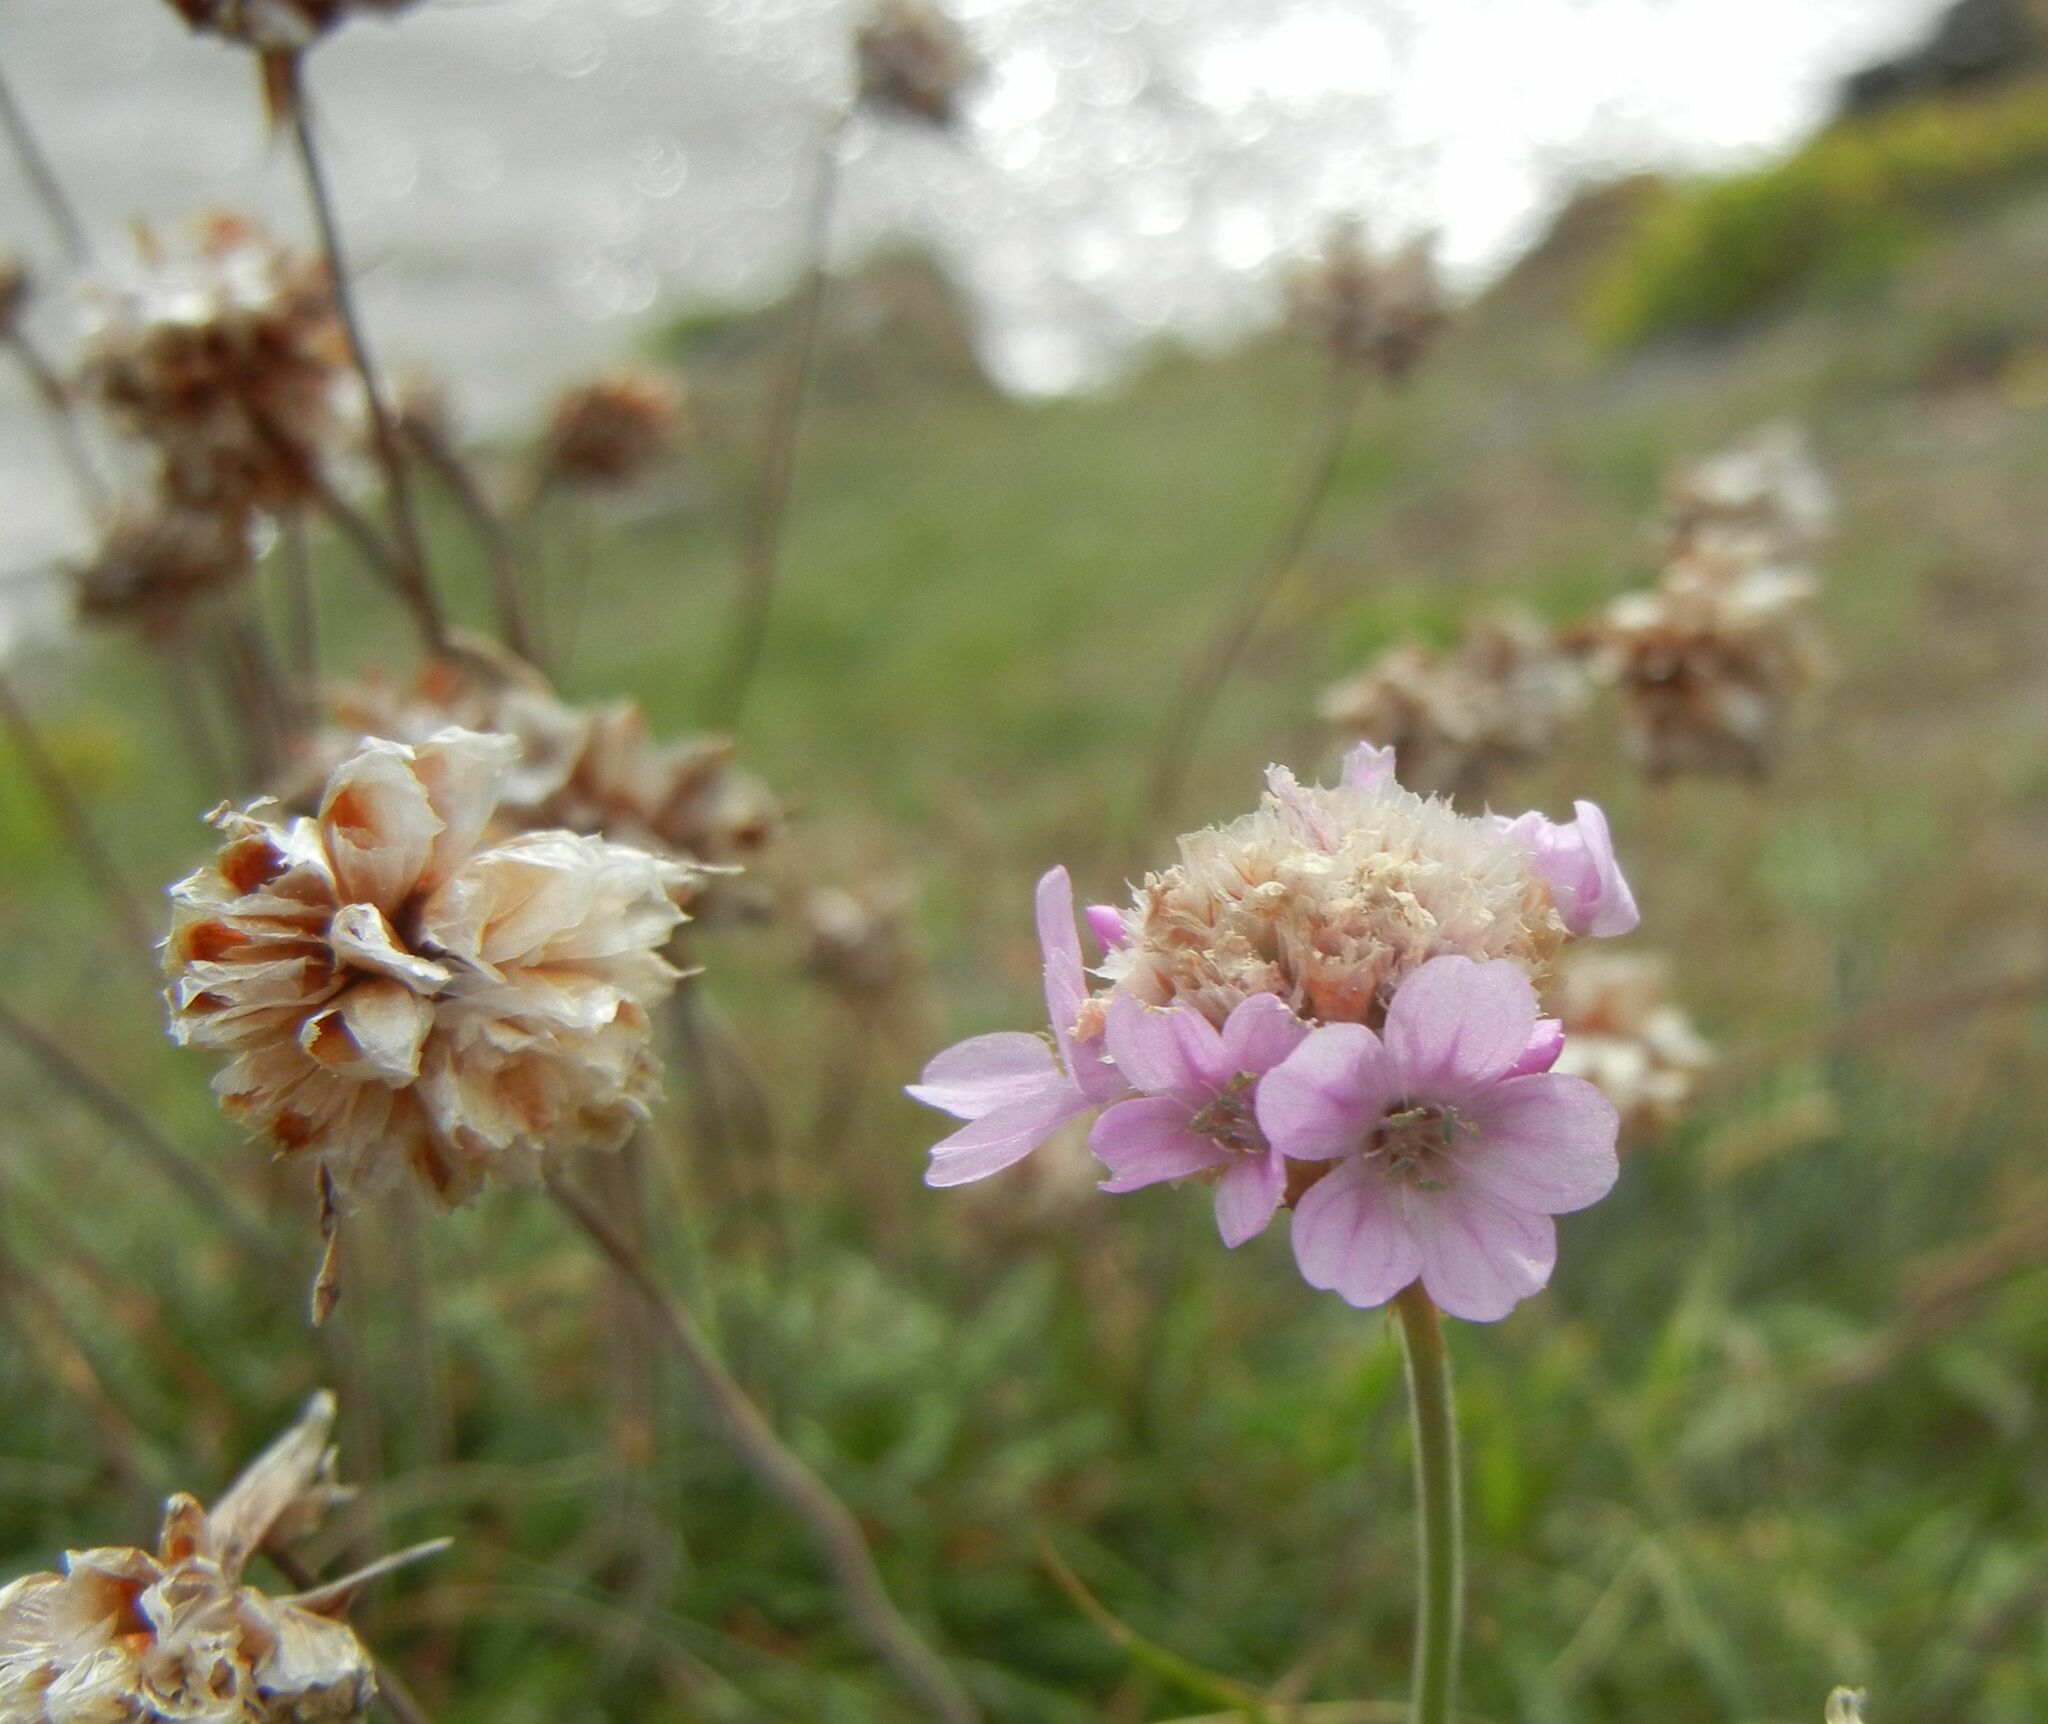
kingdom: Plantae
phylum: Tracheophyta
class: Magnoliopsida
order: Caryophyllales
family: Plumbaginaceae
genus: Armeria
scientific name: Armeria maritima
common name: Thrift
